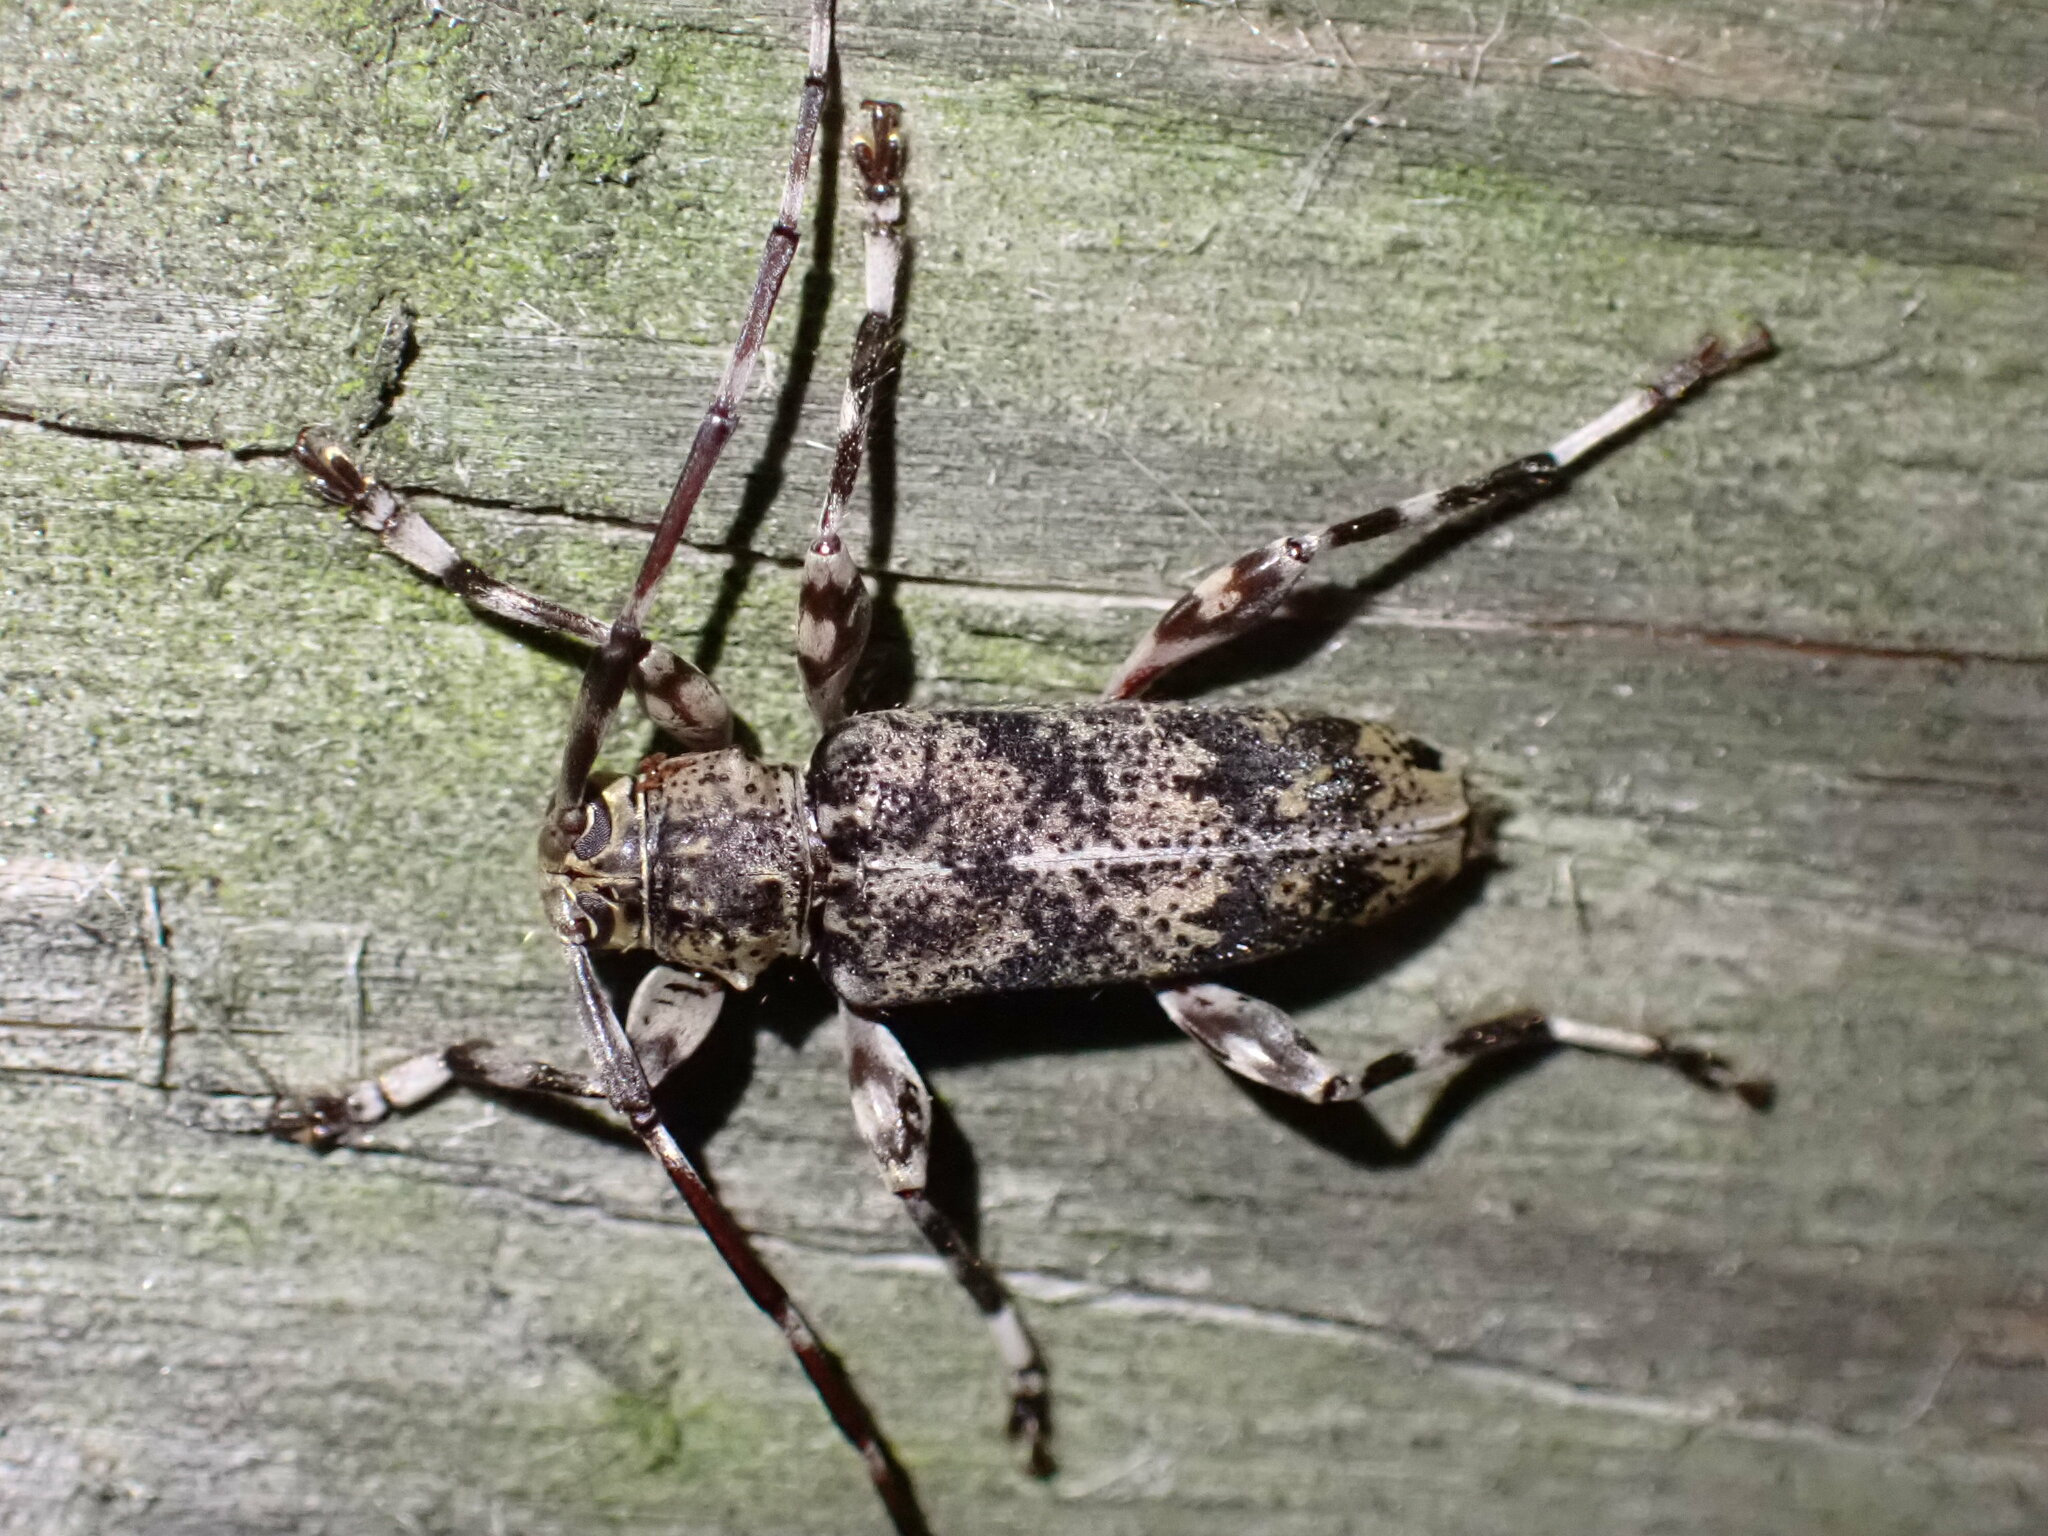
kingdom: Animalia
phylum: Arthropoda
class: Insecta
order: Coleoptera
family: Cerambycidae
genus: Graphisurus
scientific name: Graphisurus fasciatus
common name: Banded graphisurus
